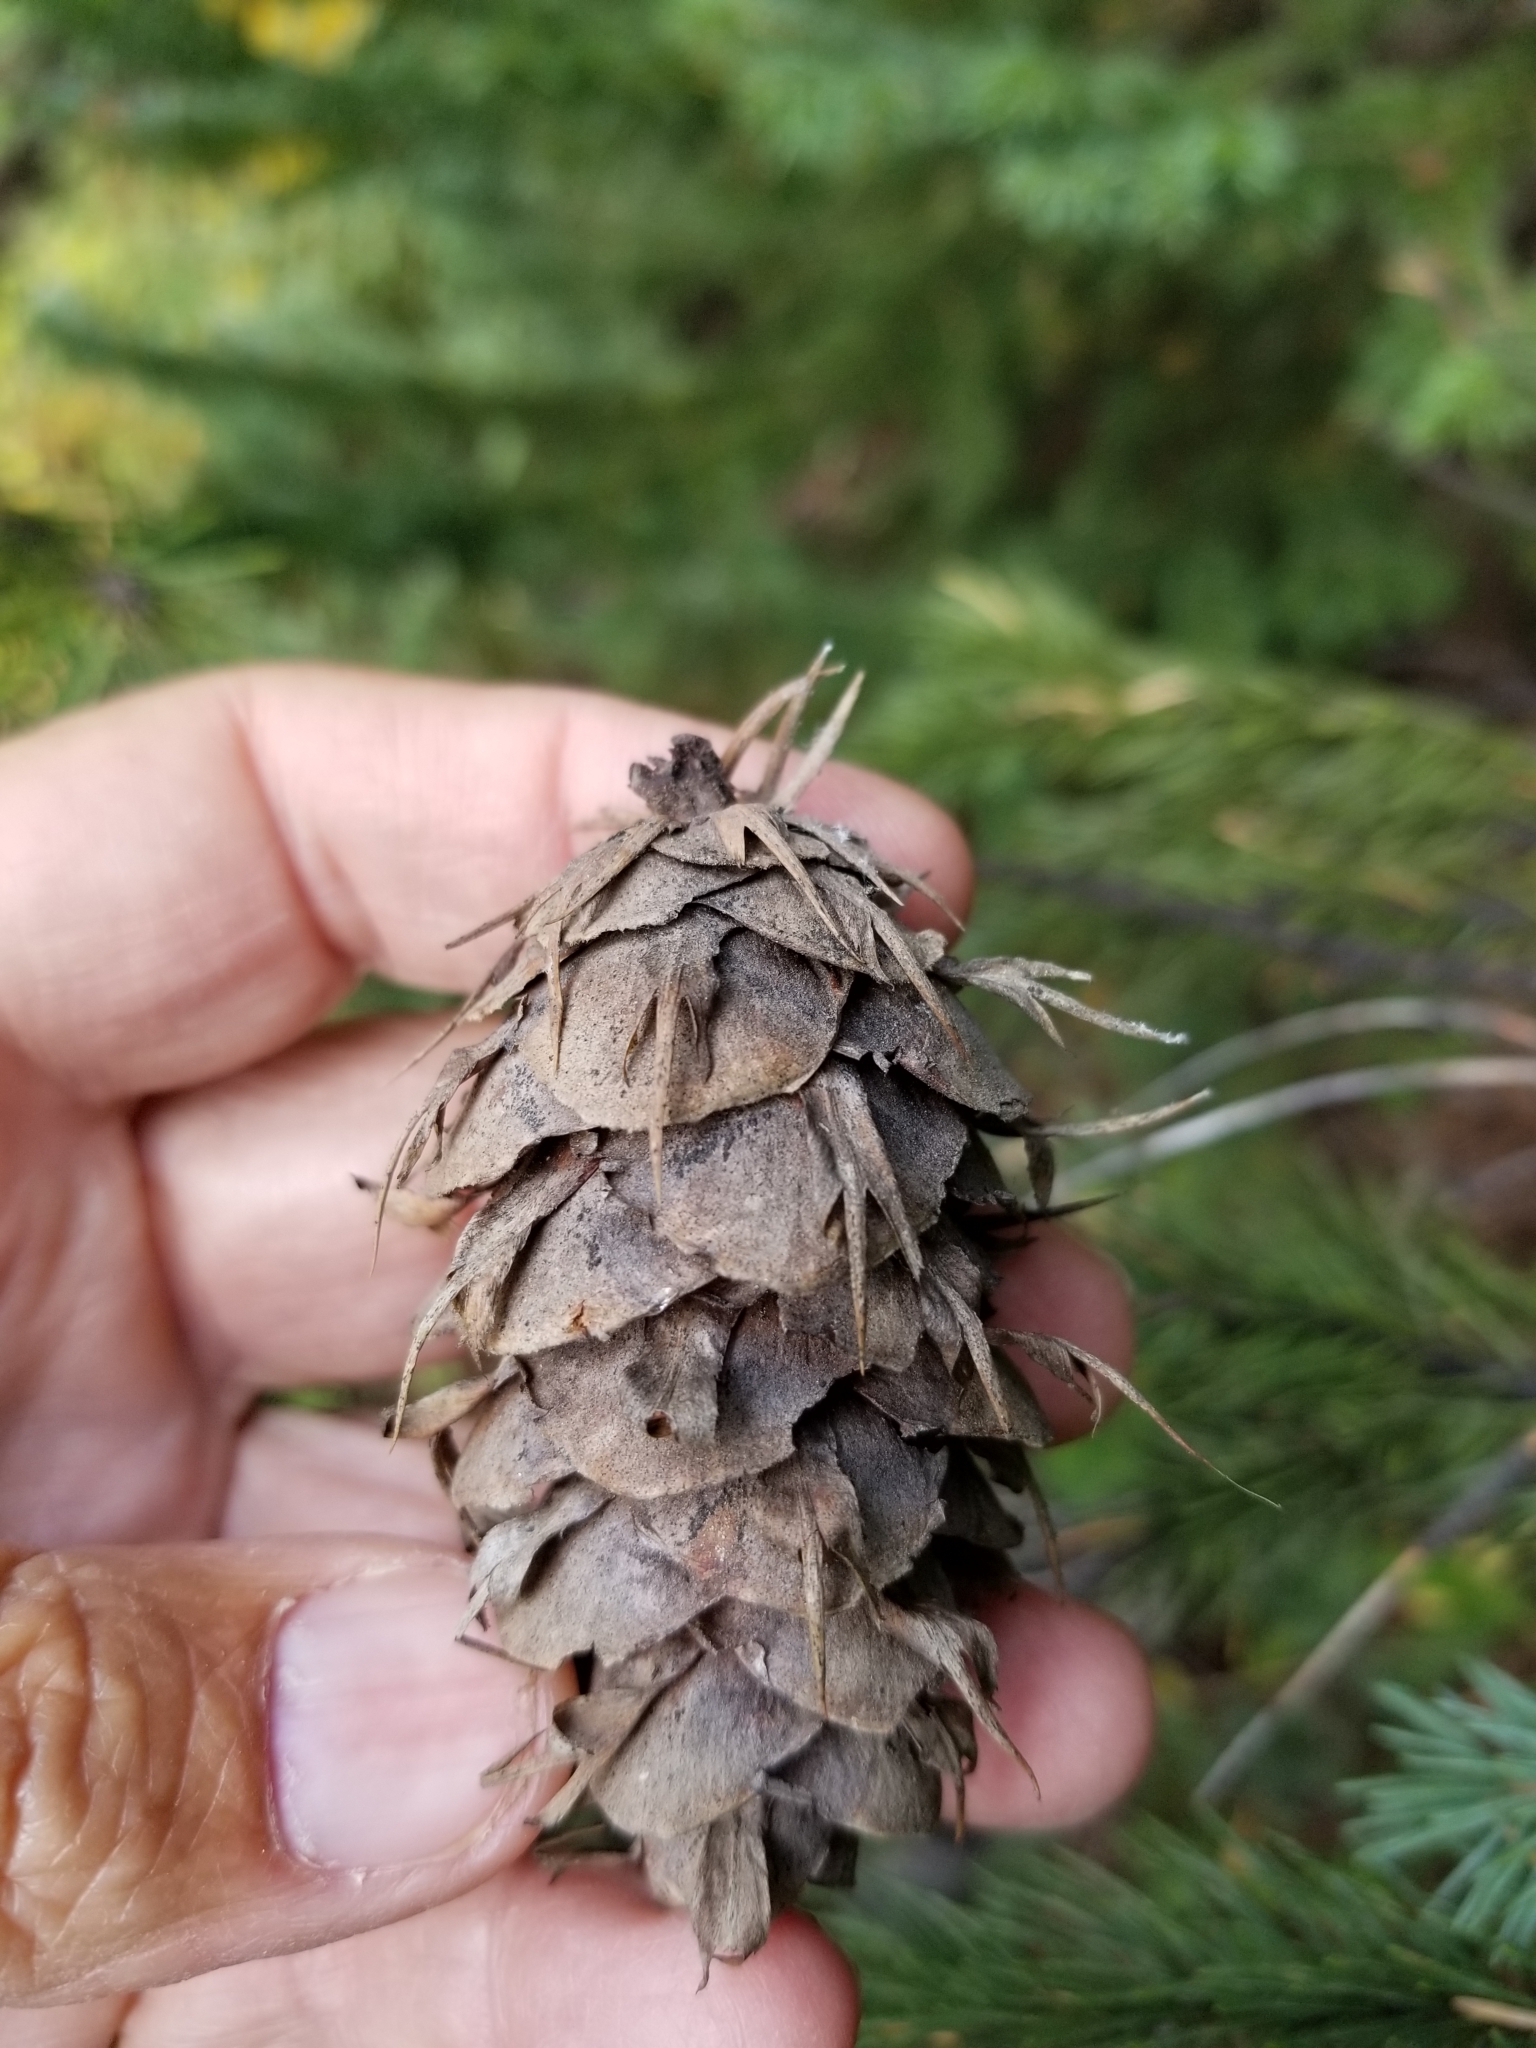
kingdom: Plantae
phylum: Tracheophyta
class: Pinopsida
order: Pinales
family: Pinaceae
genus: Pseudotsuga
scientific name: Pseudotsuga menziesii
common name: Douglas fir
